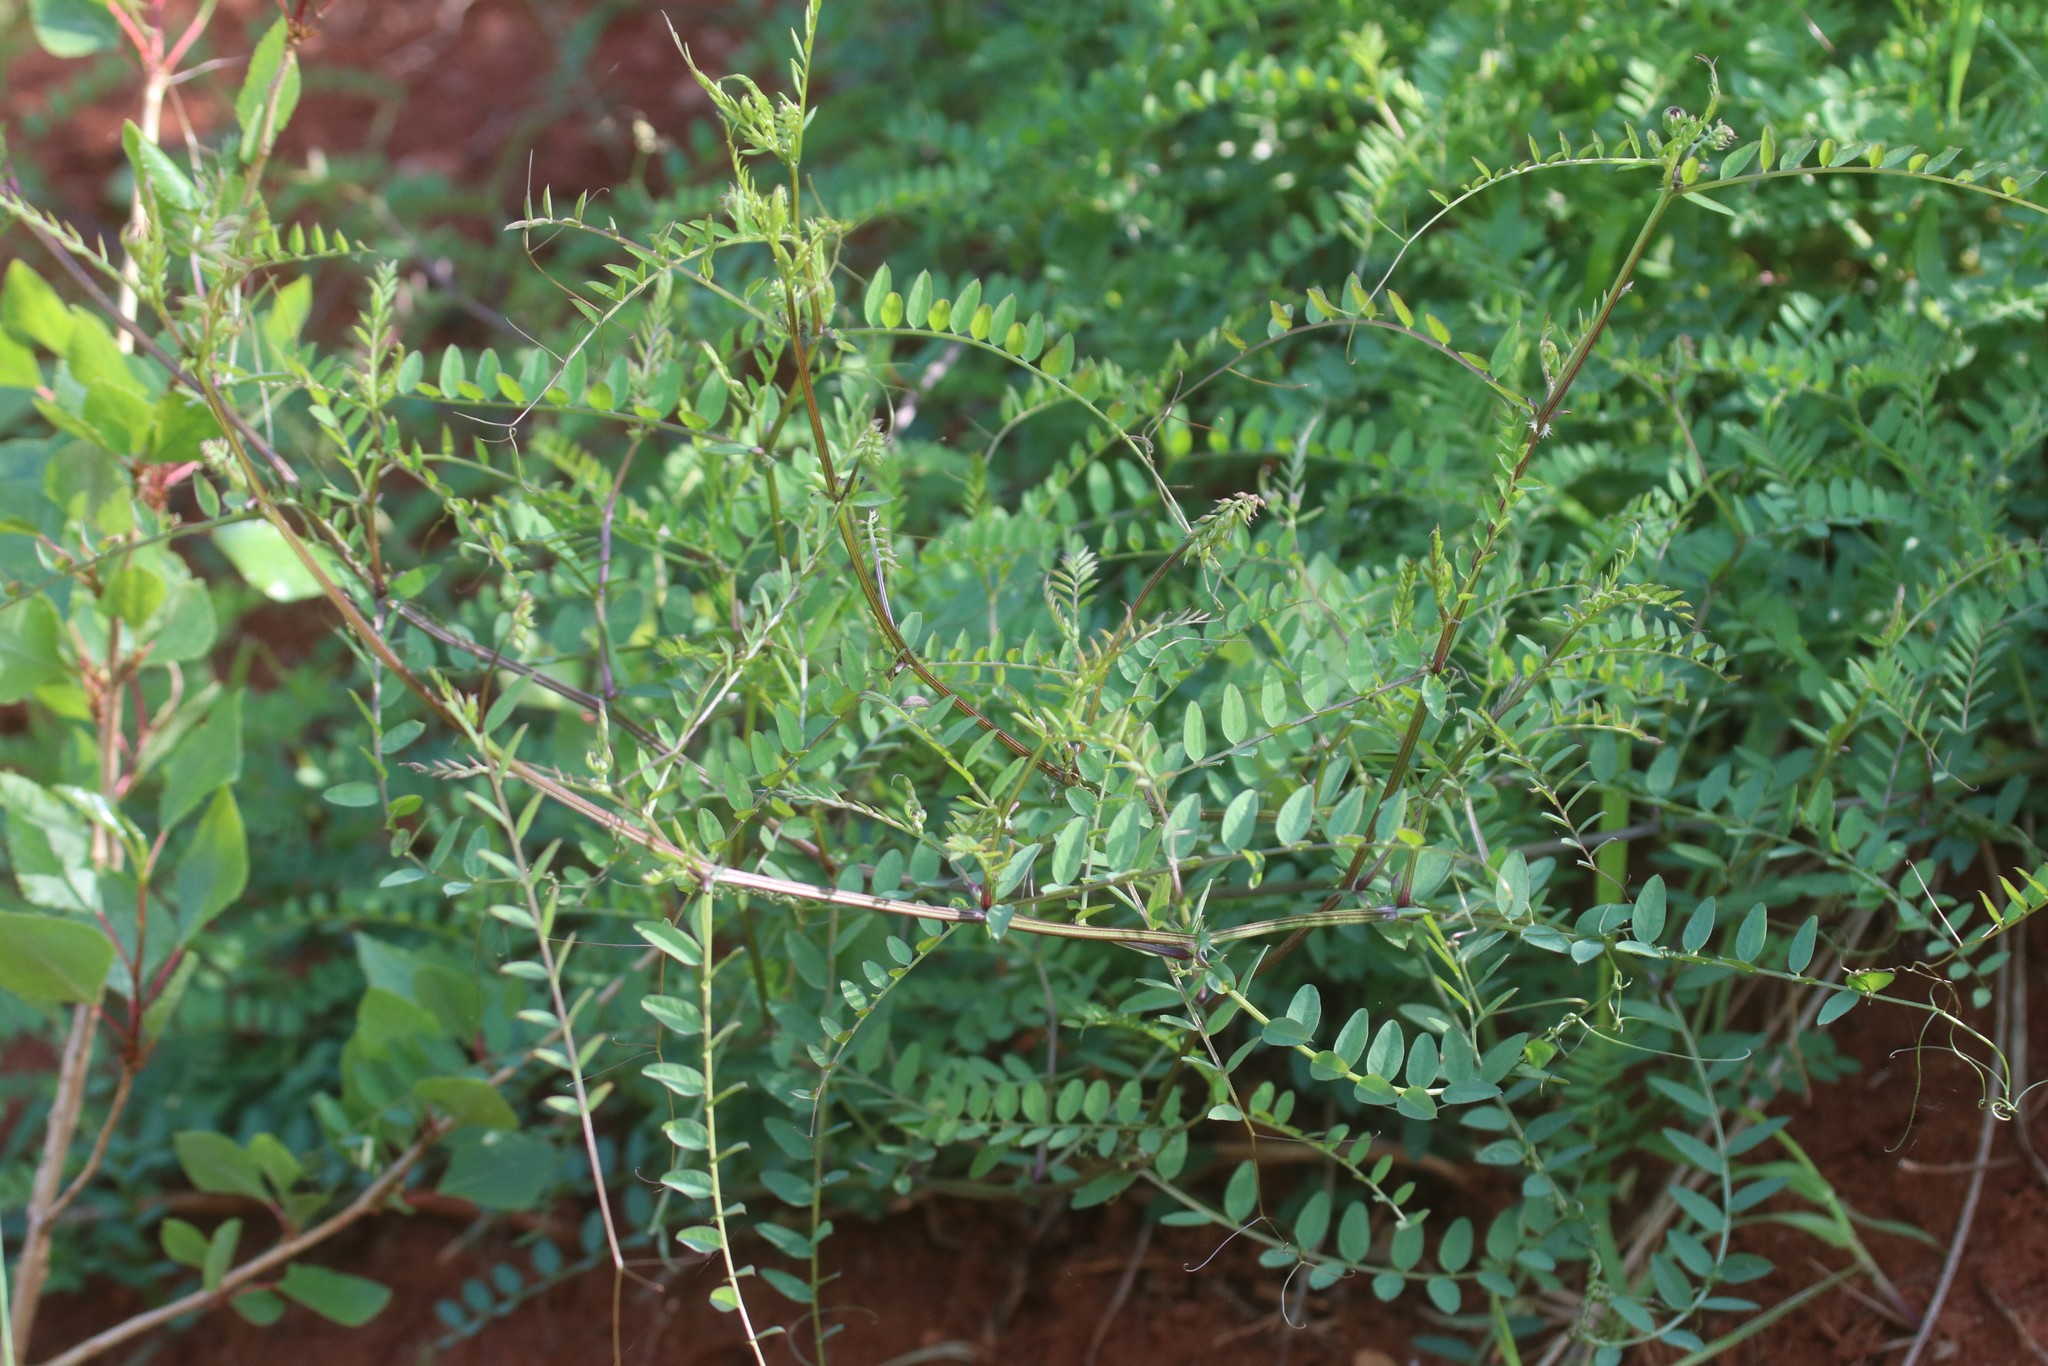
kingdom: Plantae
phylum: Tracheophyta
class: Magnoliopsida
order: Fabales
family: Fabaceae
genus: Vicia
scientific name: Vicia sylvatica
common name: Wood vetch
